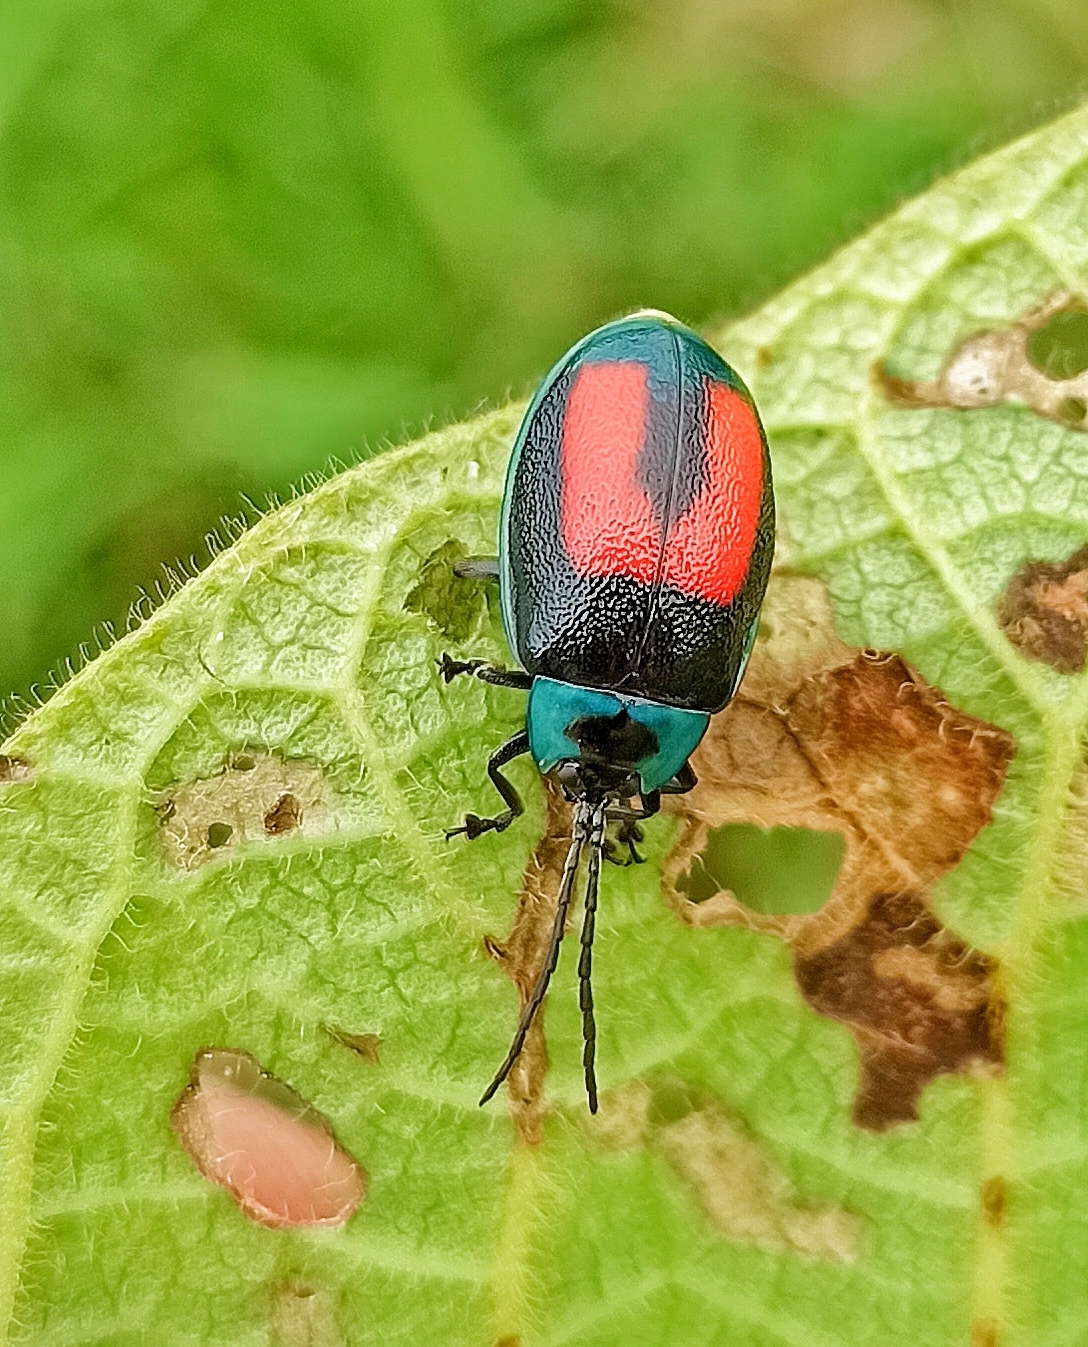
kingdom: Animalia
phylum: Arthropoda
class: Insecta
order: Coleoptera
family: Chrysomelidae
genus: Aspicela
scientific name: Aspicela
